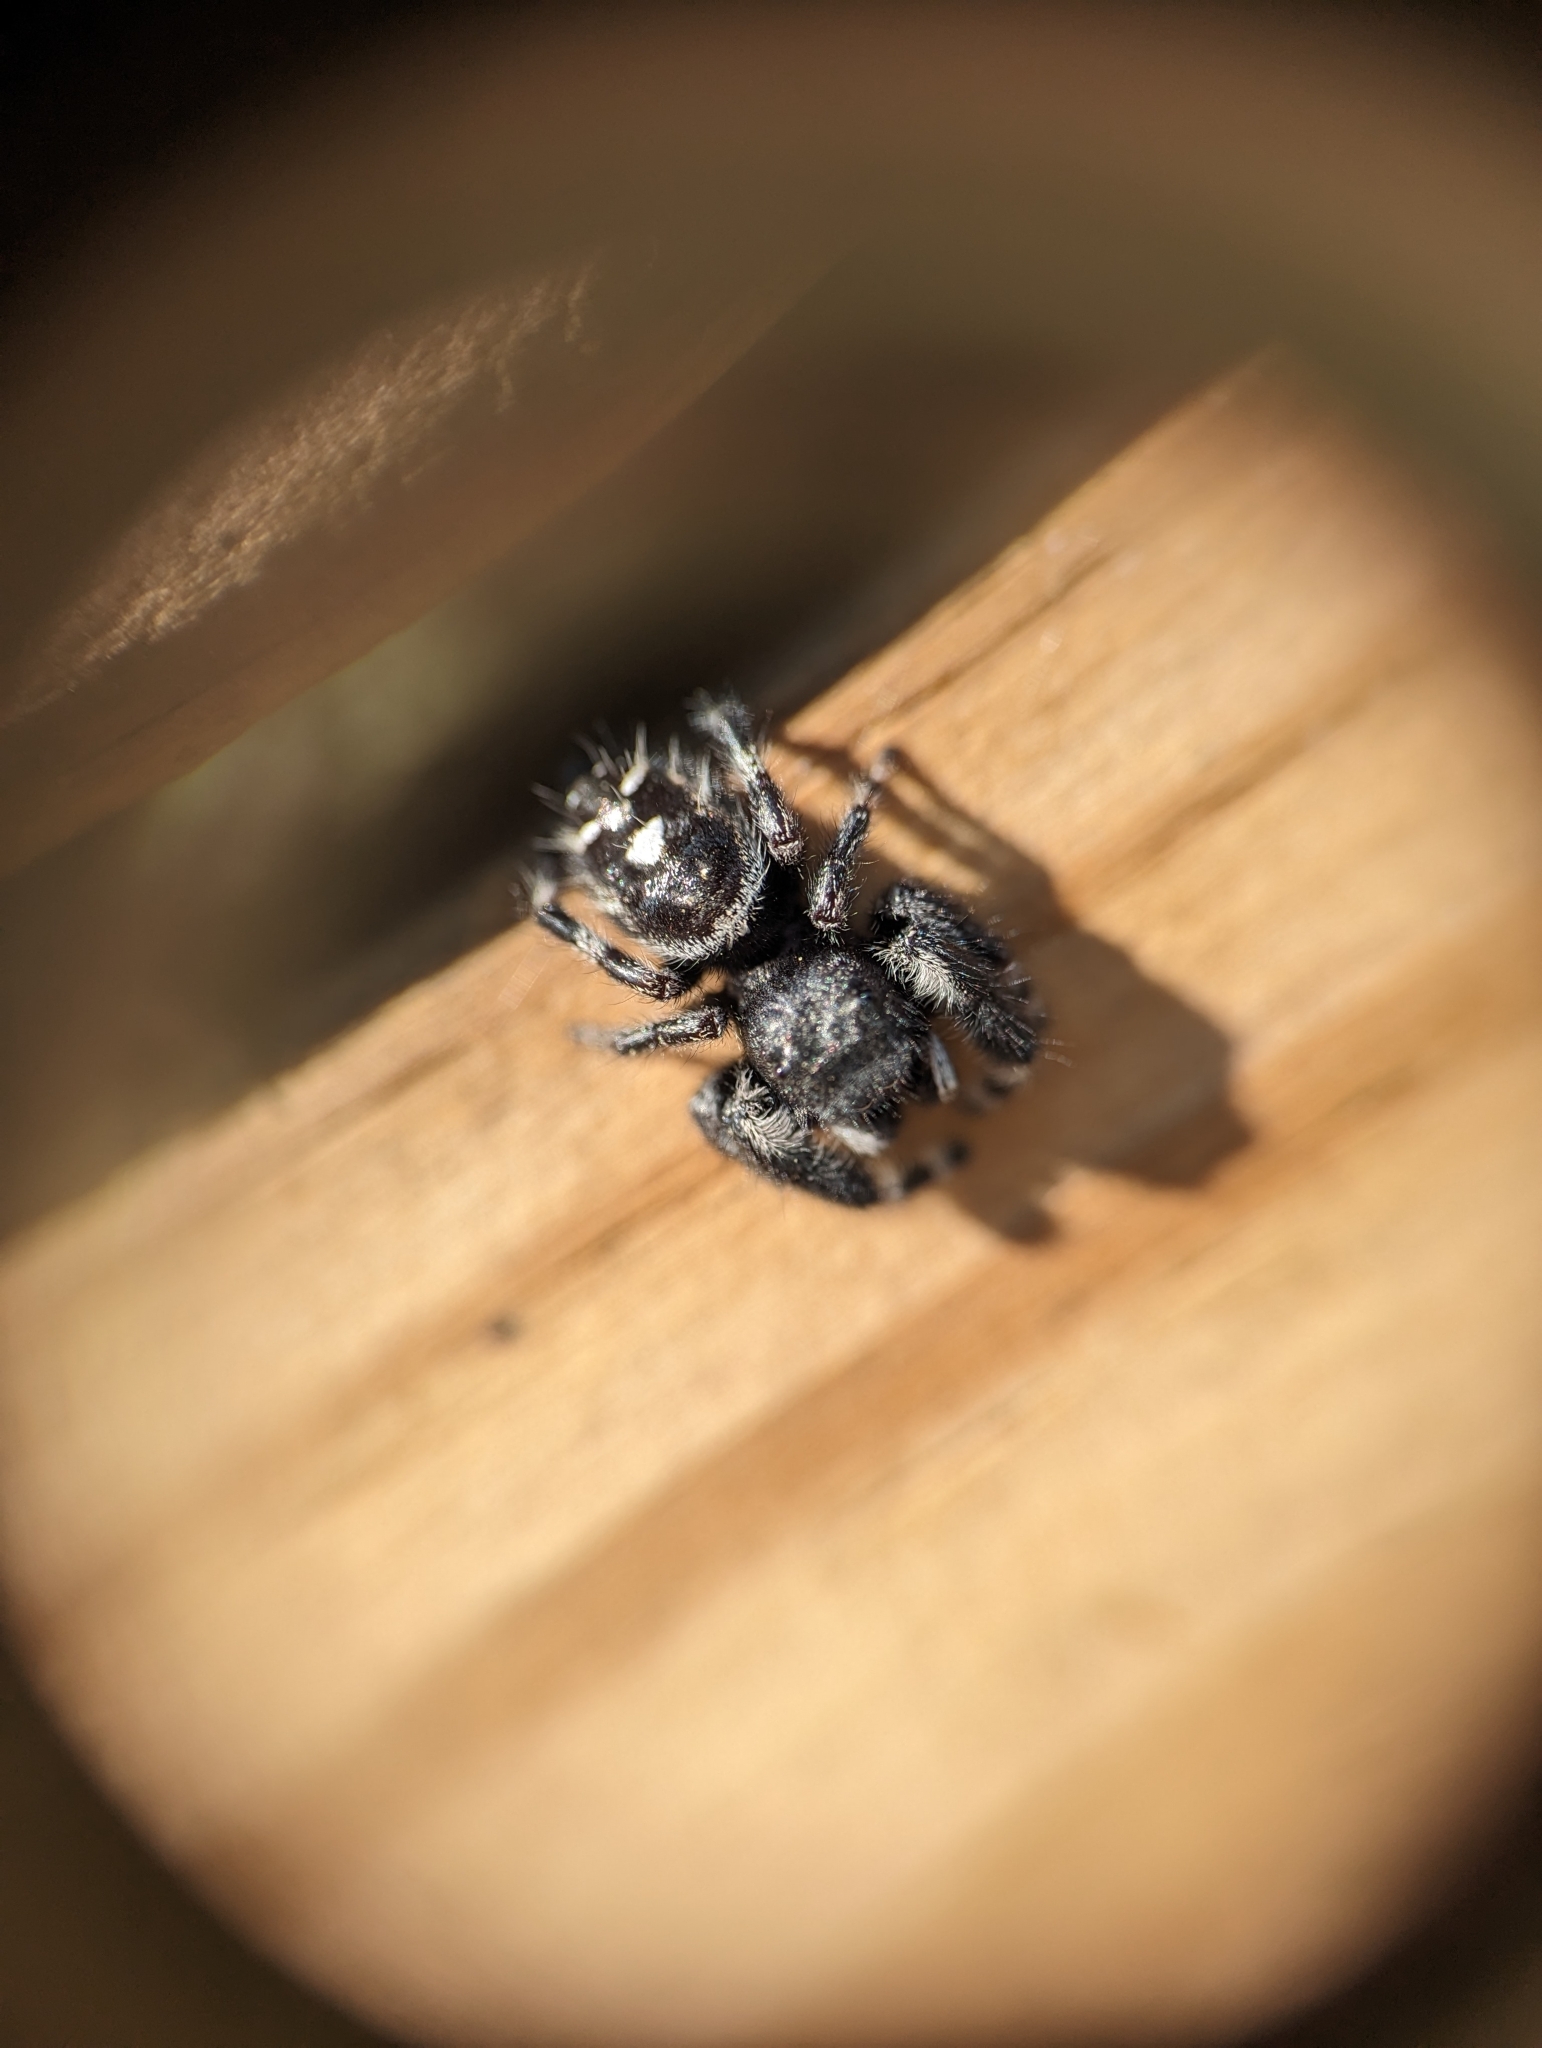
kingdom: Animalia
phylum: Arthropoda
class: Arachnida
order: Araneae
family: Salticidae
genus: Phidippus
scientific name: Phidippus audax
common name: Bold jumper
